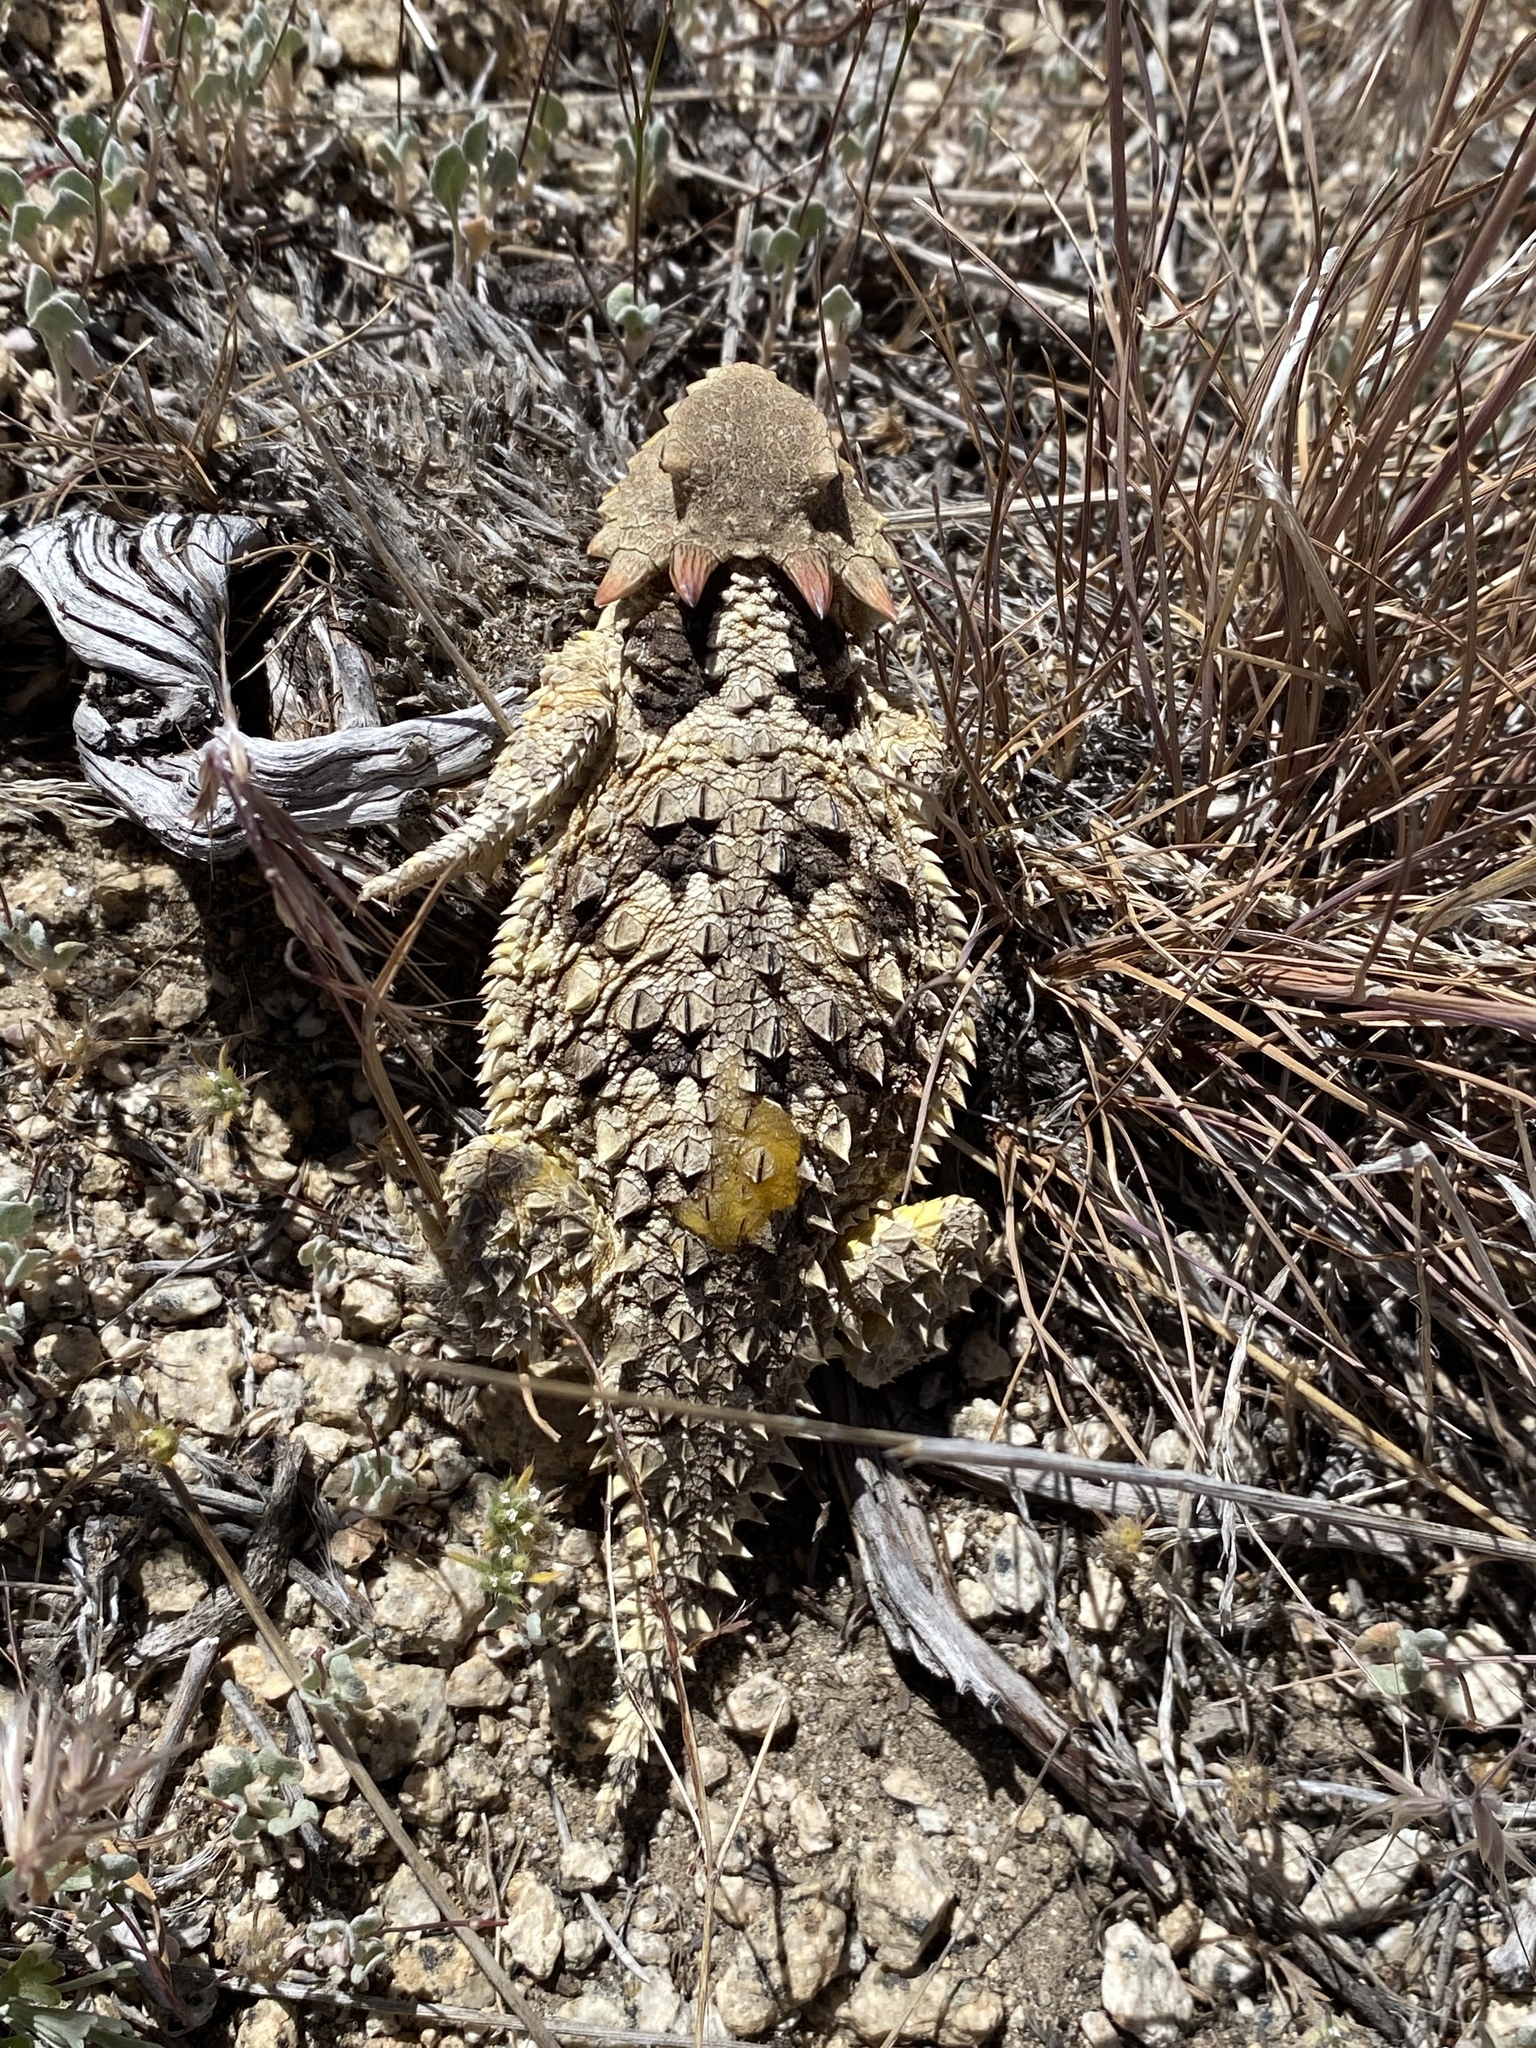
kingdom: Animalia
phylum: Chordata
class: Squamata
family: Phrynosomatidae
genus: Phrynosoma
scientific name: Phrynosoma blainvillii
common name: San diego horned lizard
